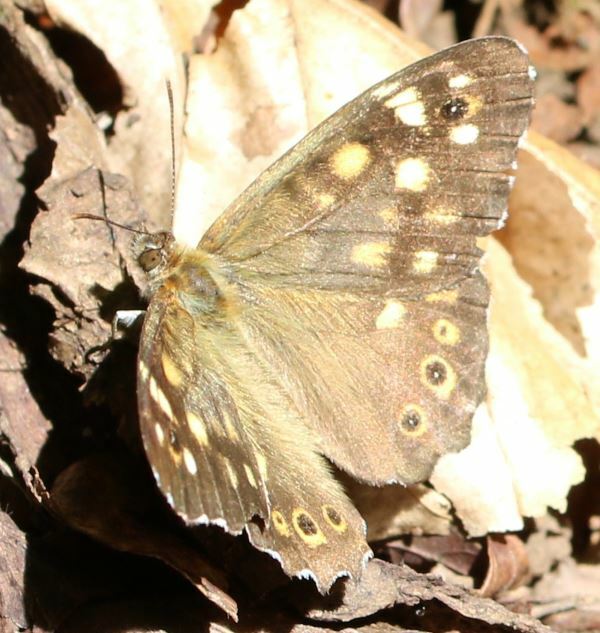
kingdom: Animalia
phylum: Arthropoda
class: Insecta
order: Lepidoptera
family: Nymphalidae
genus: Pararge
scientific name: Pararge aegeria
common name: Speckled wood
